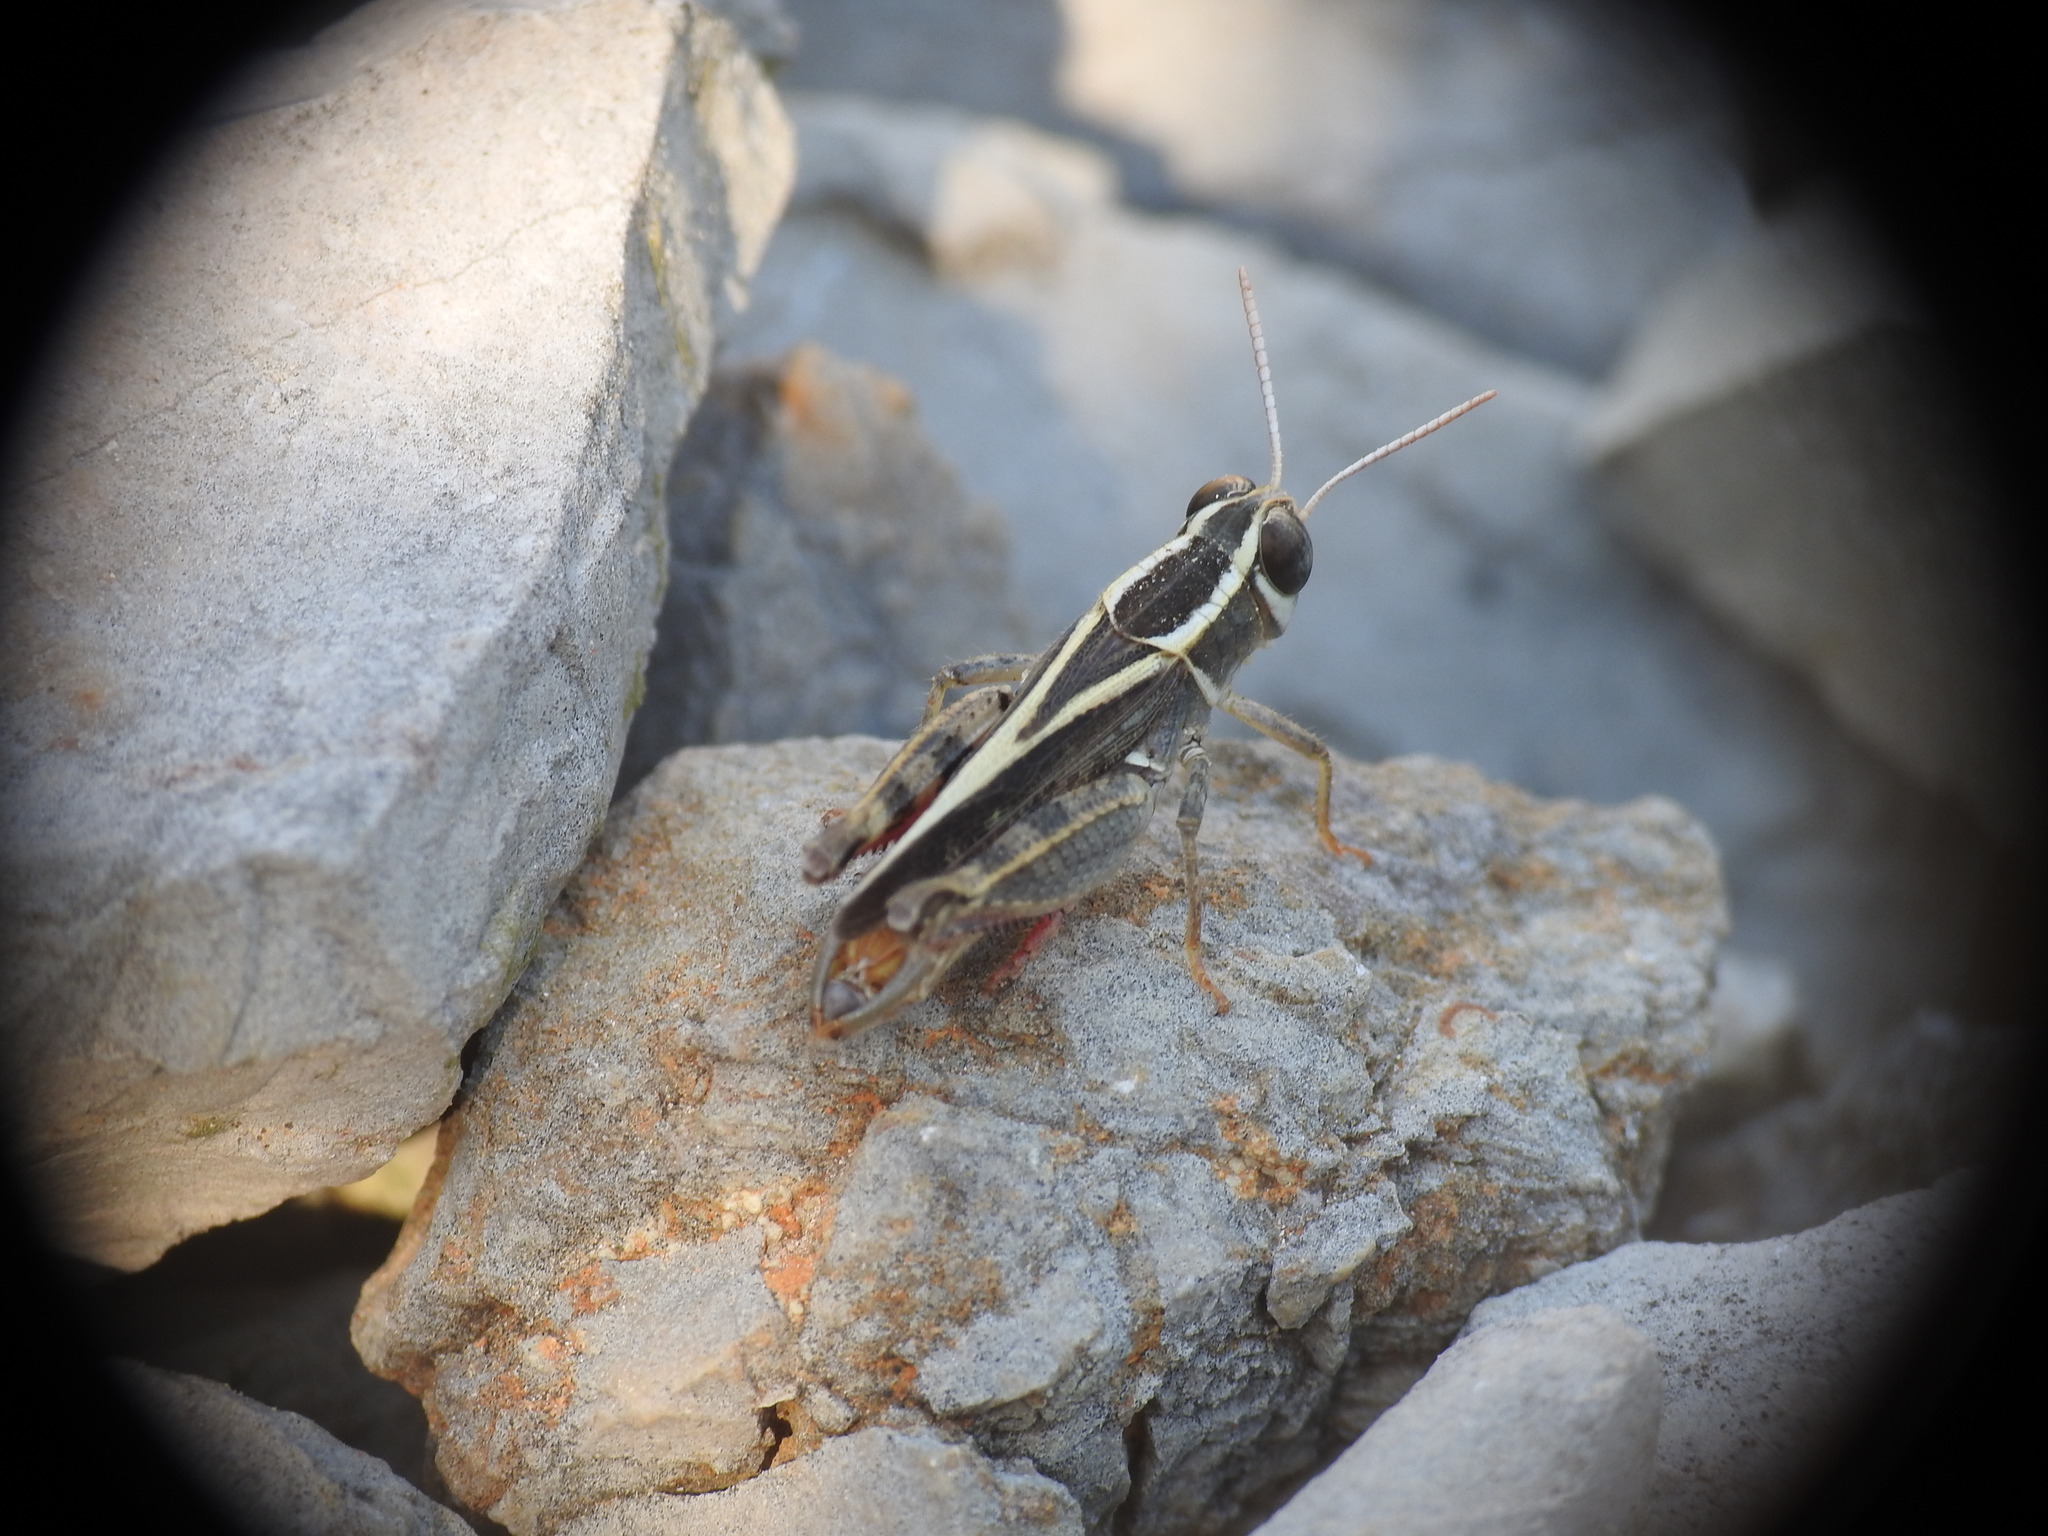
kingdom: Animalia
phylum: Arthropoda
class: Insecta
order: Orthoptera
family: Acrididae
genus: Calliptamus
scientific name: Calliptamus barbarus
